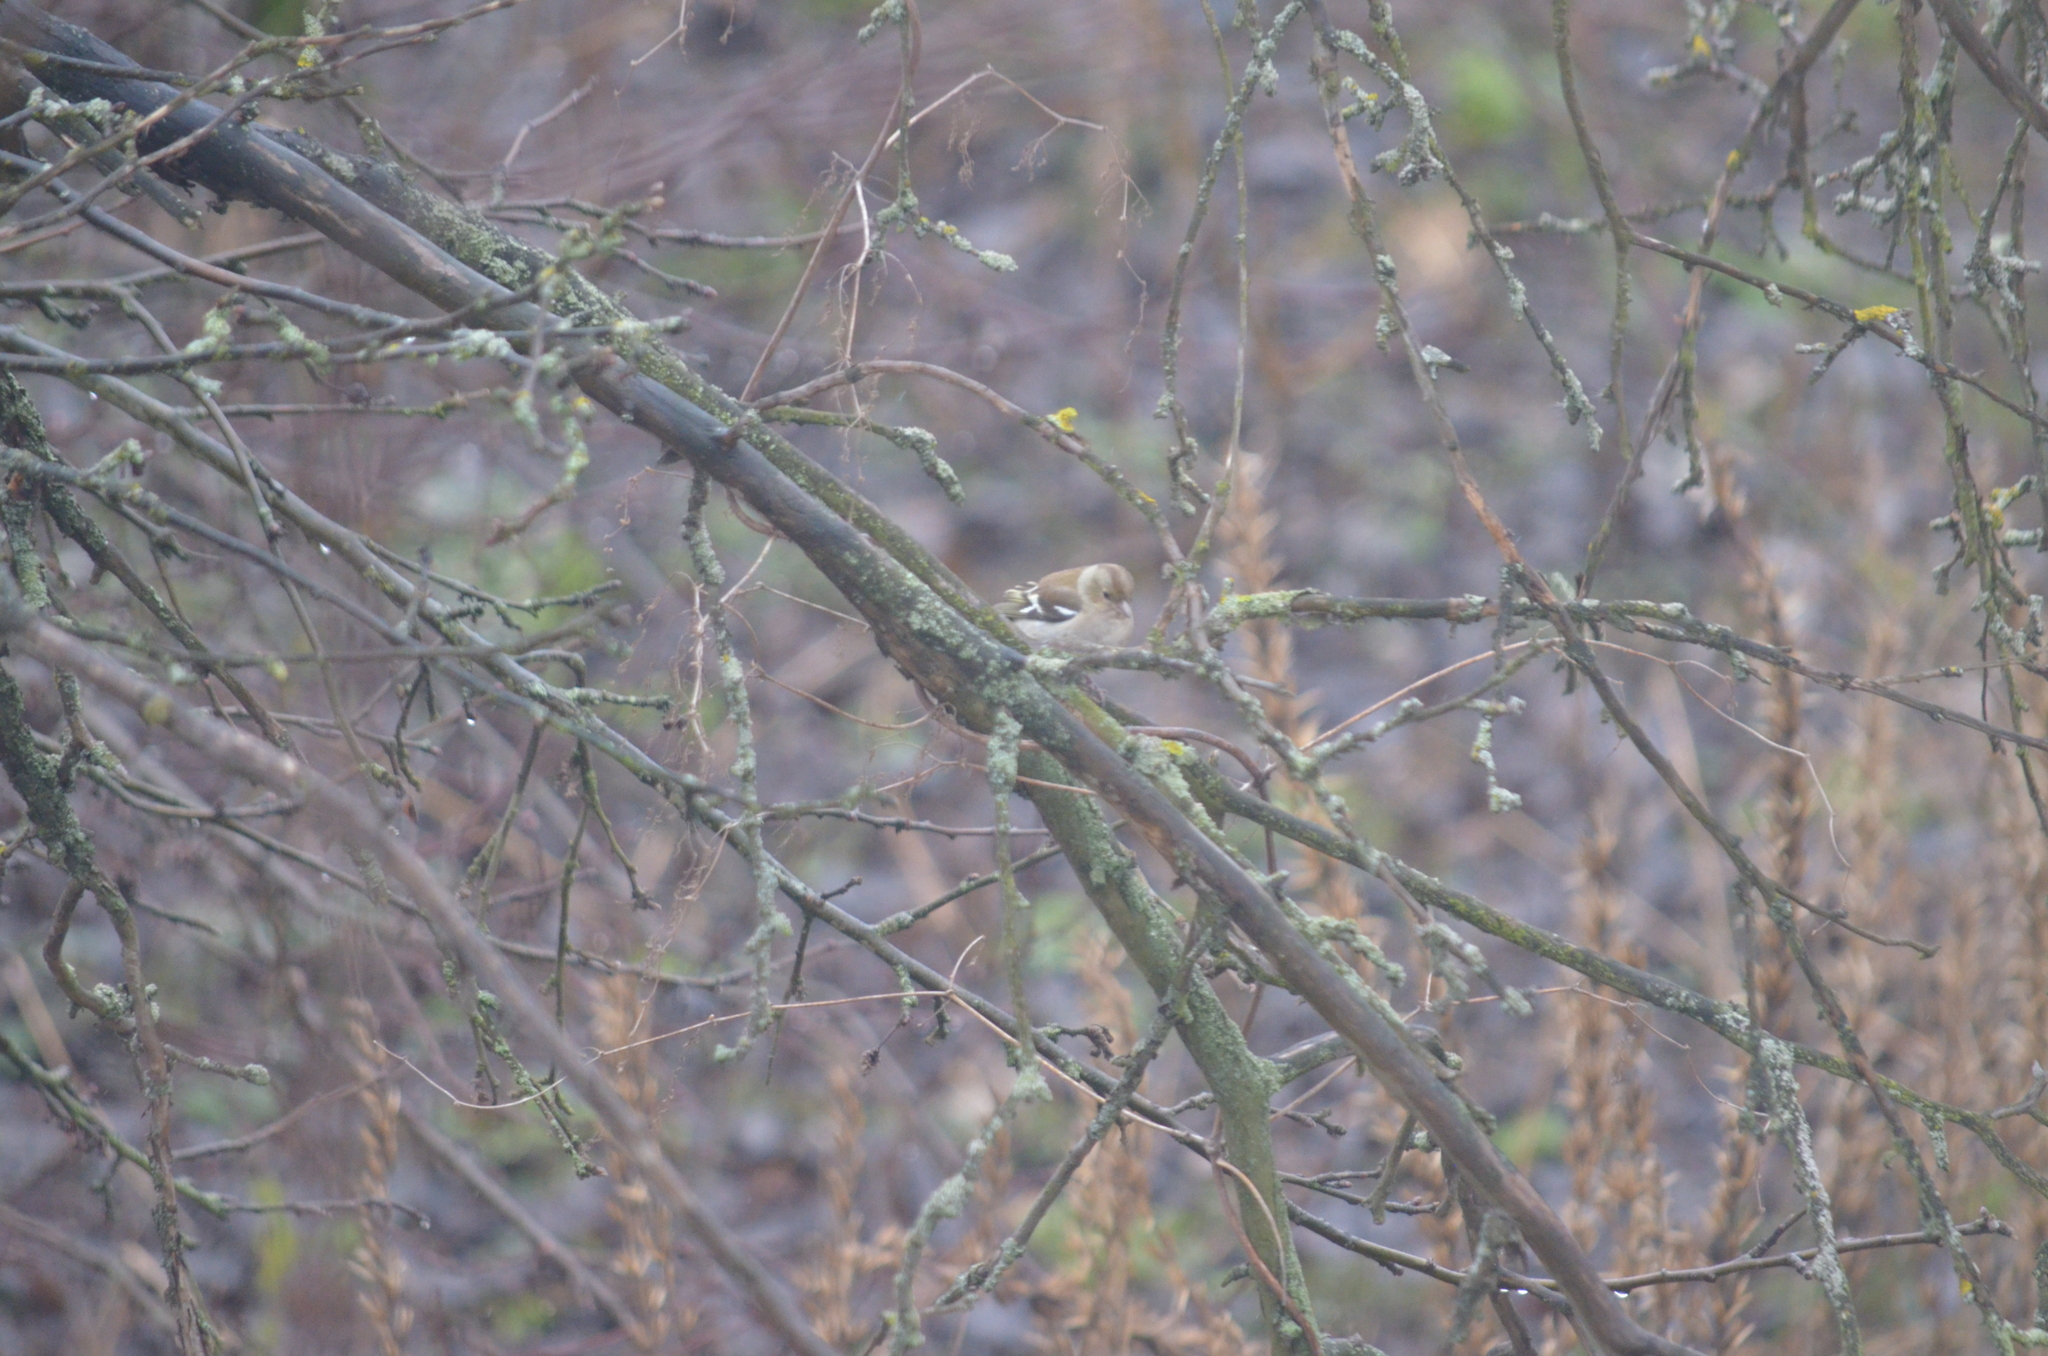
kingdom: Animalia
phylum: Chordata
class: Aves
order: Passeriformes
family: Fringillidae
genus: Fringilla
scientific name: Fringilla coelebs
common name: Common chaffinch
